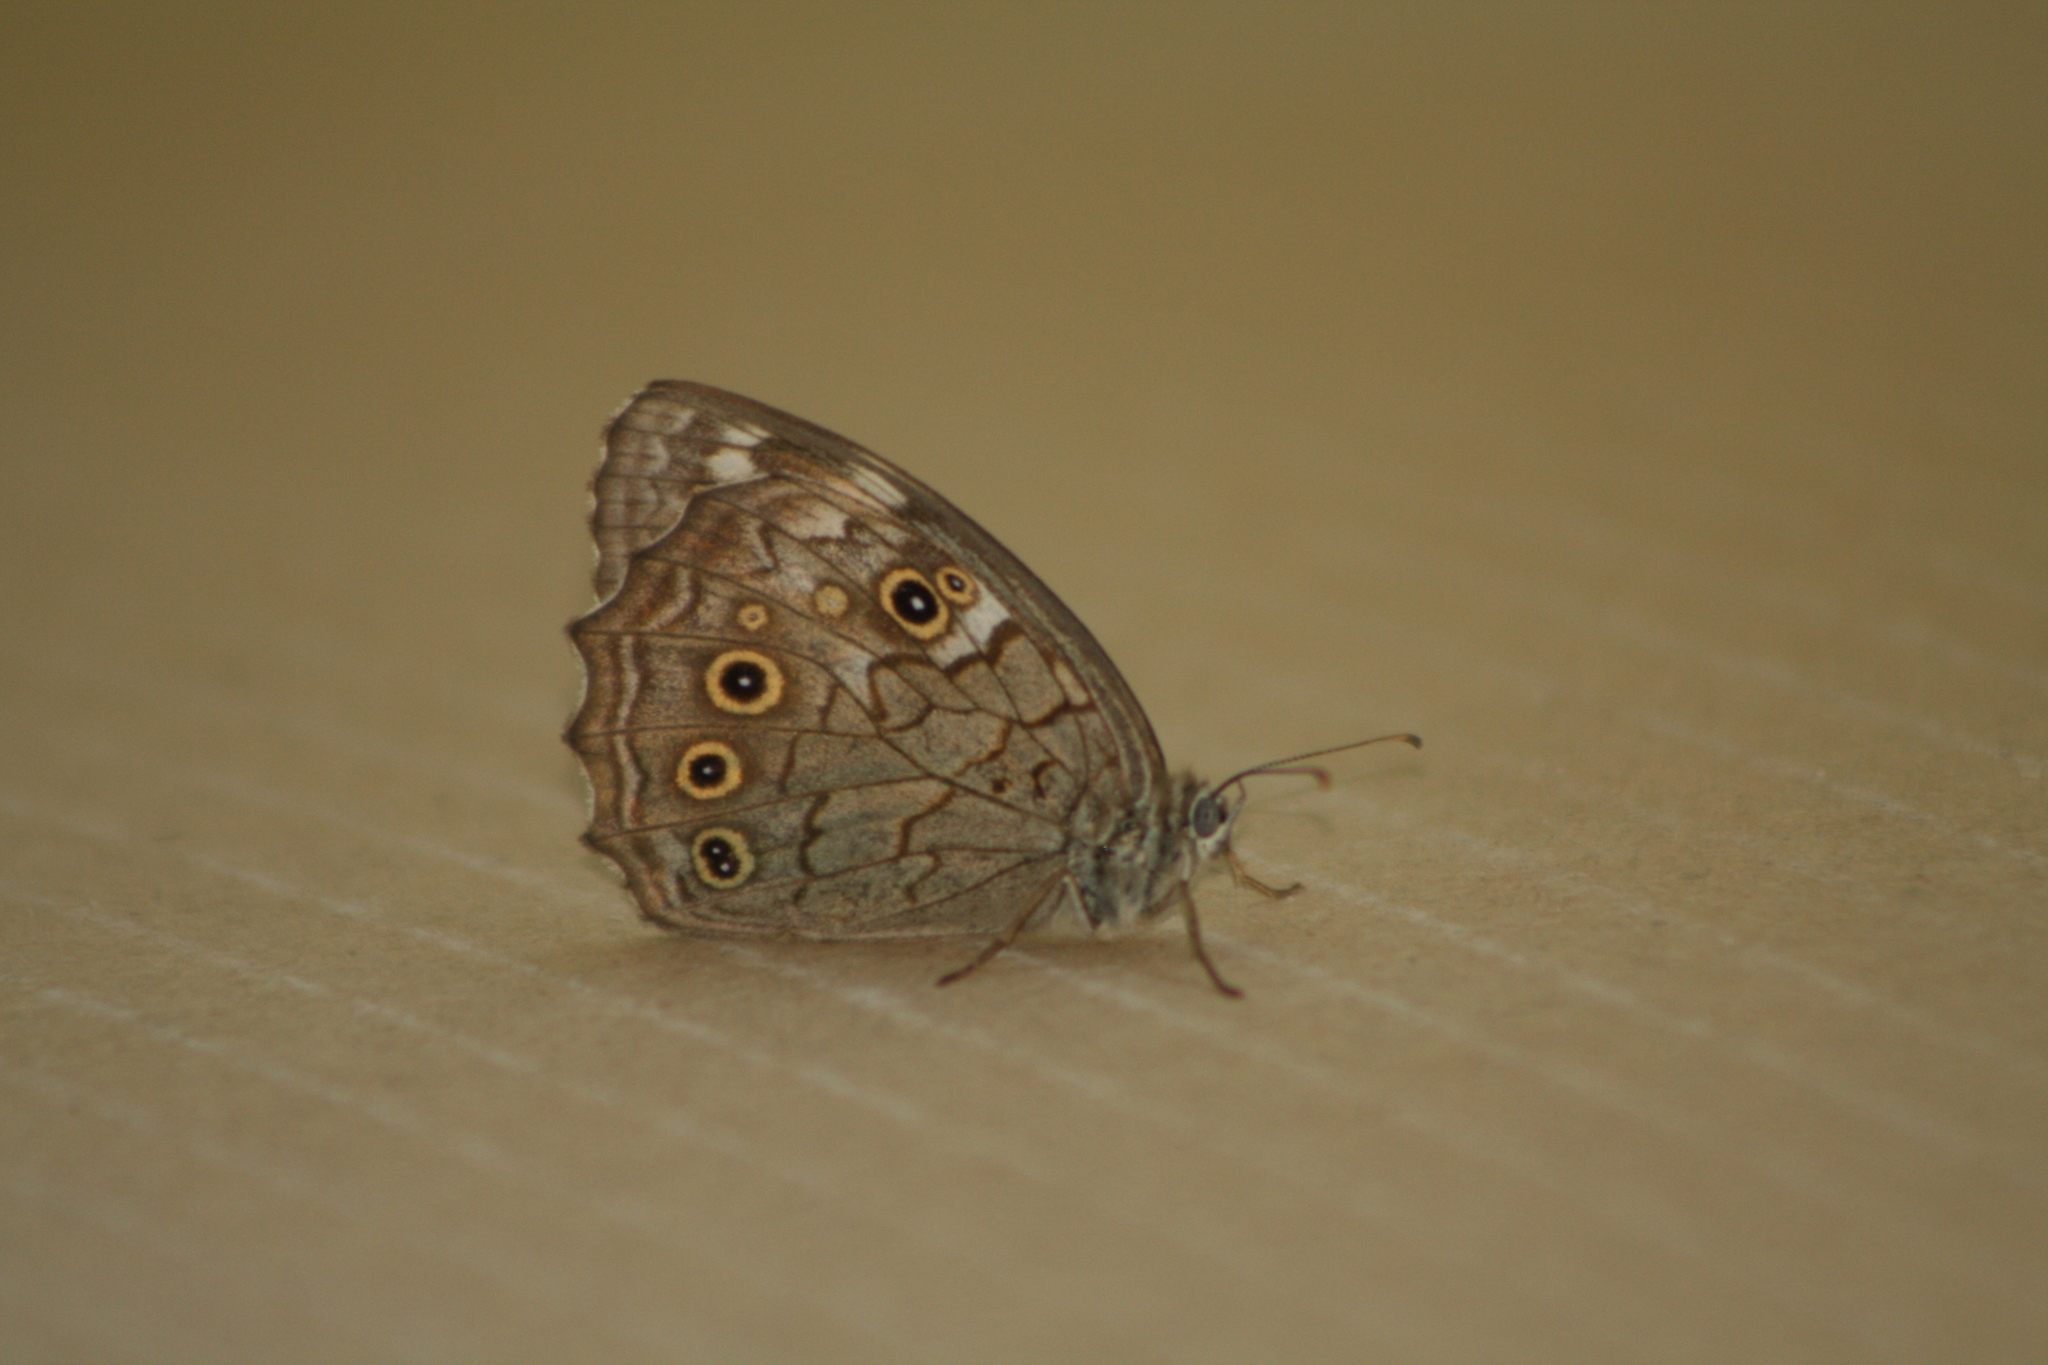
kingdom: Animalia
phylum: Arthropoda
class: Insecta
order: Lepidoptera
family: Nymphalidae
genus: Kirinia
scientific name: Kirinia roxelana
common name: Lattice brown
